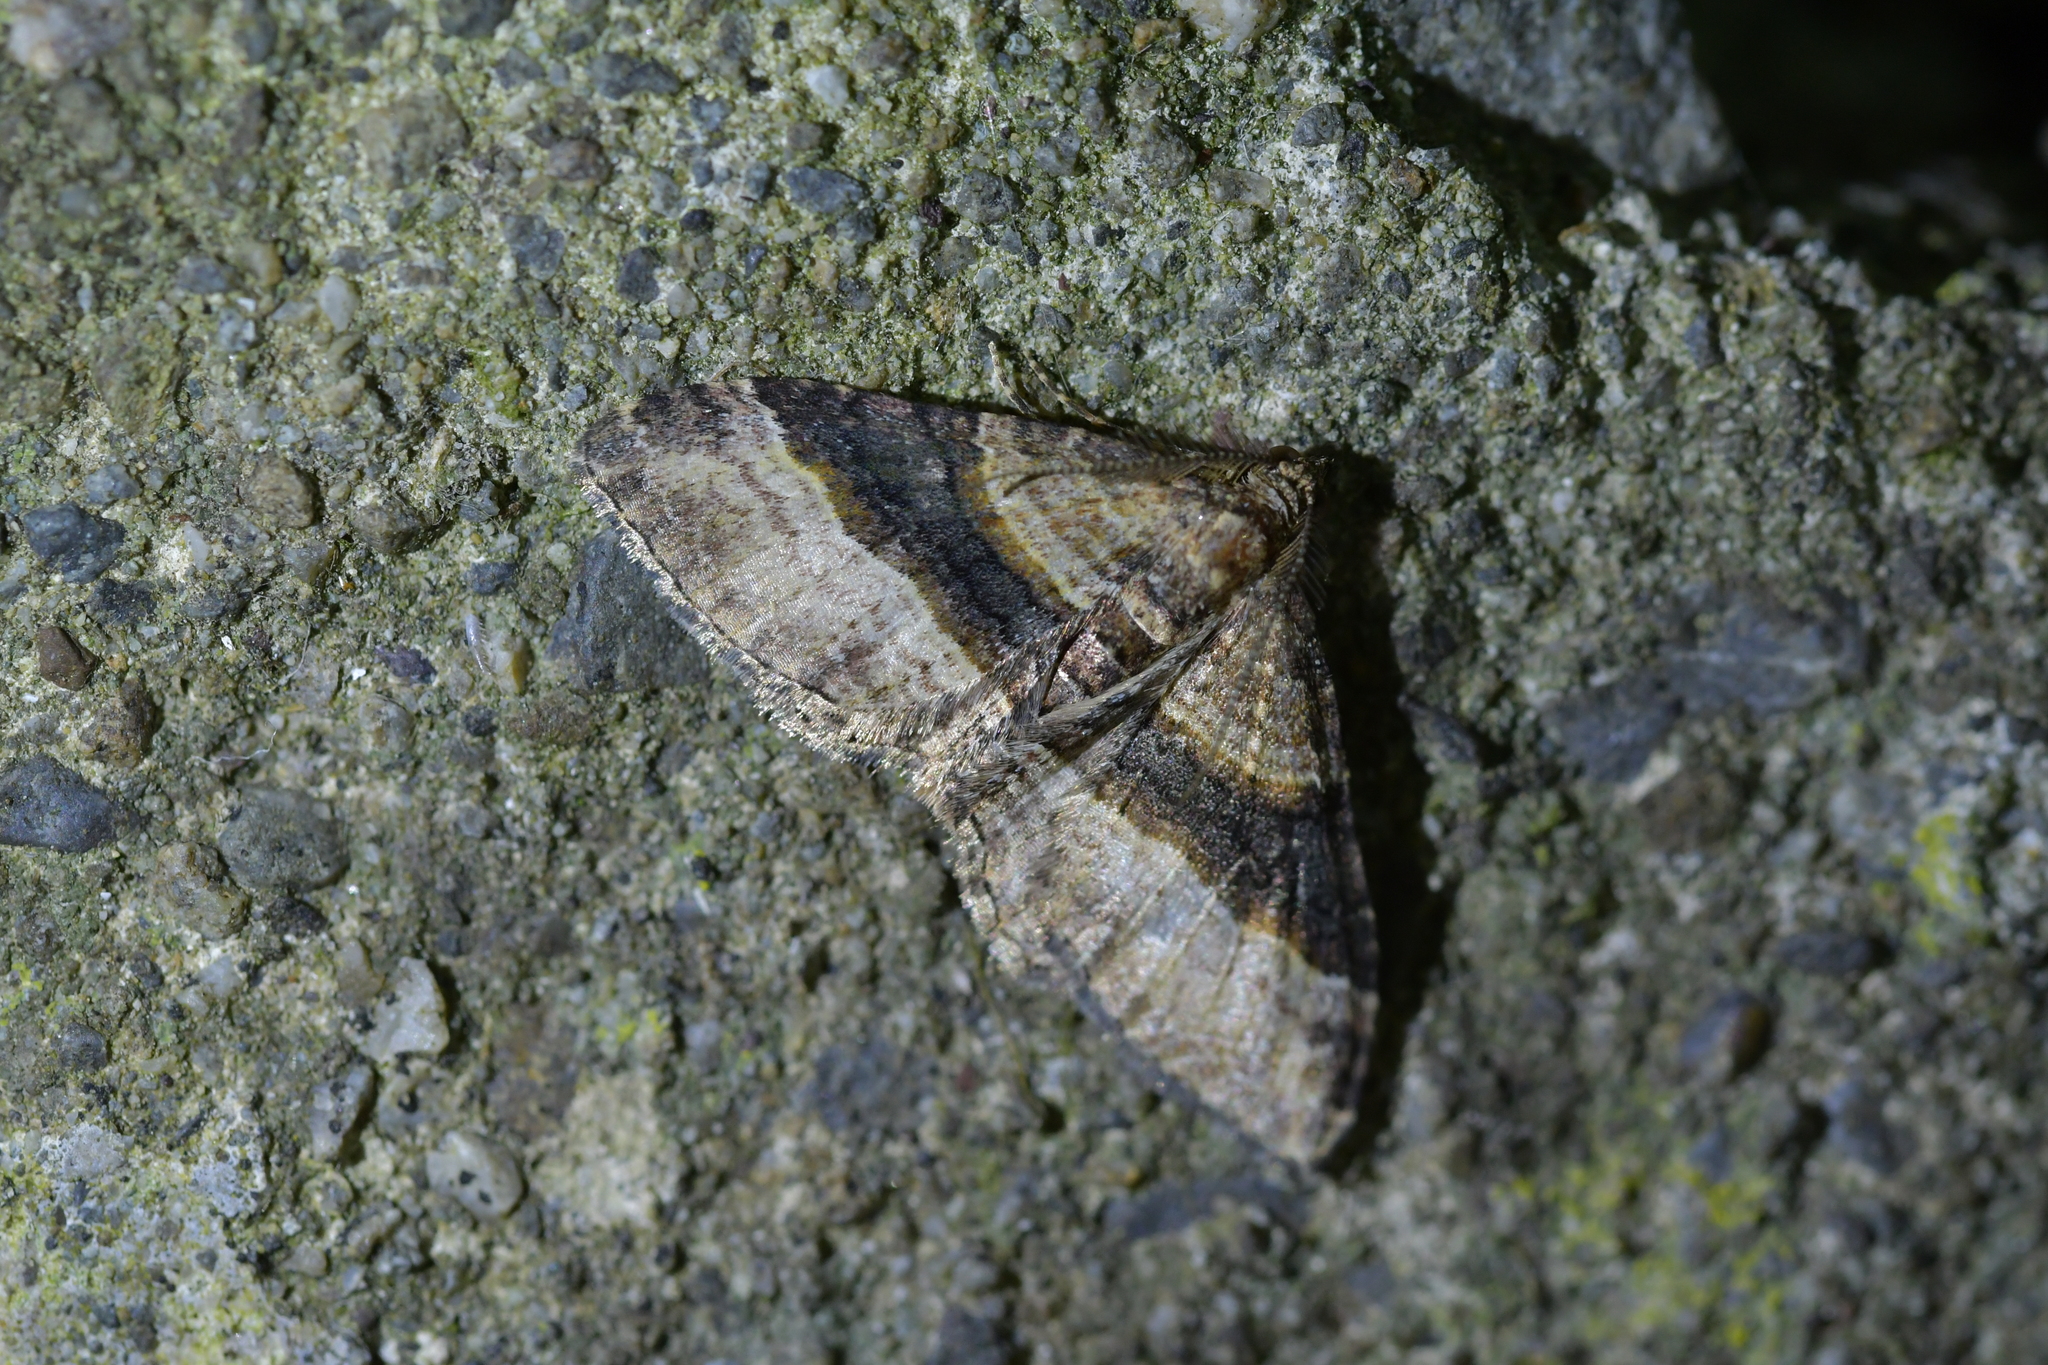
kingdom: Animalia
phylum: Arthropoda
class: Insecta
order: Lepidoptera
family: Geometridae
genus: Epyaxa
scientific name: Epyaxa lucidata
